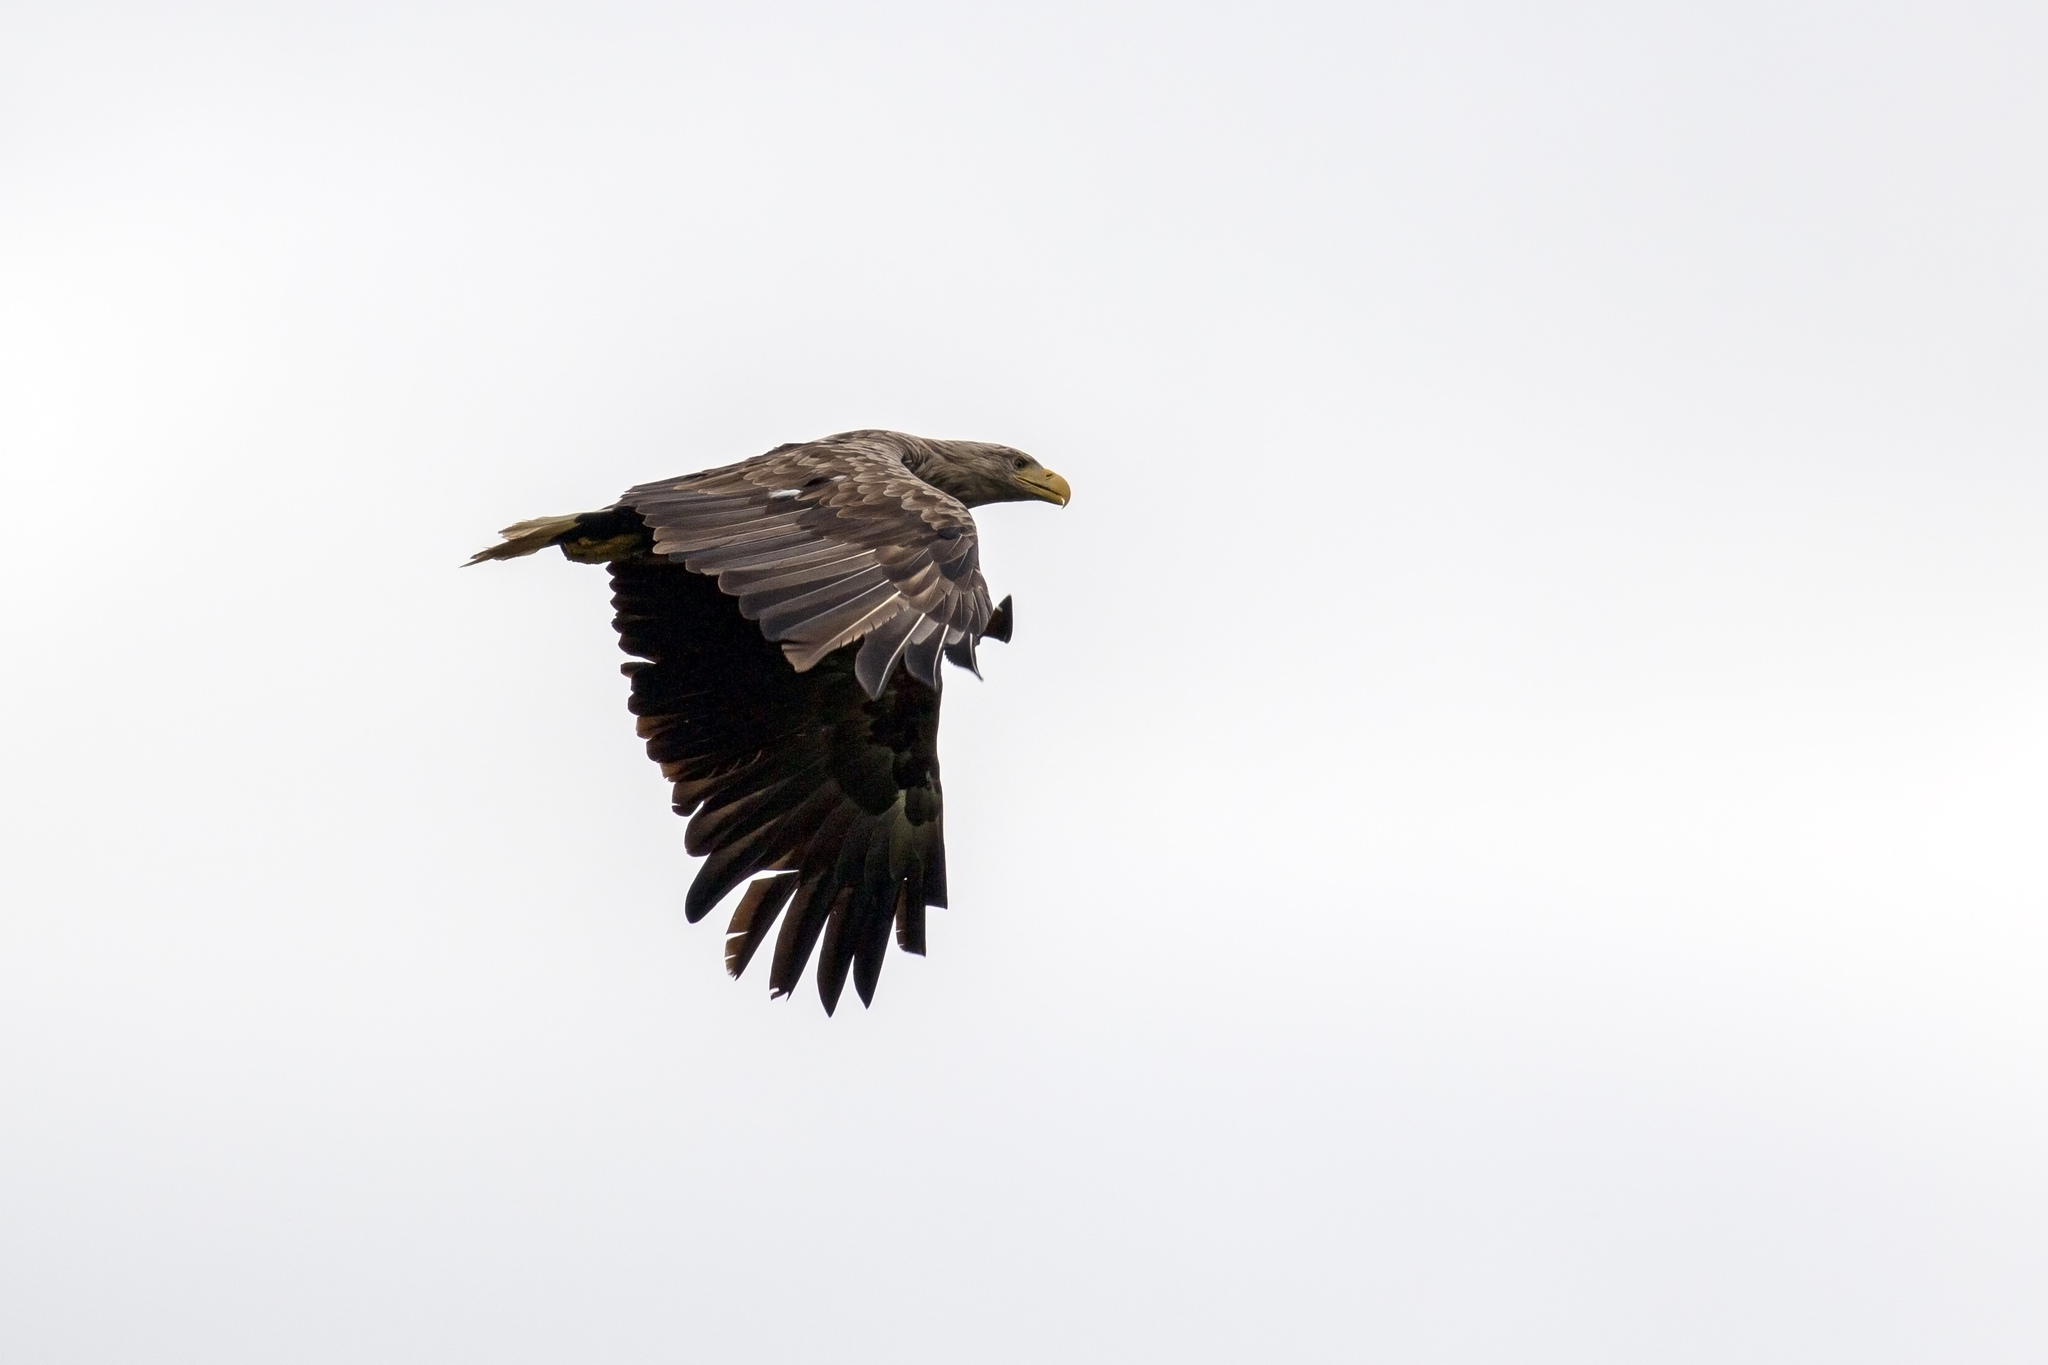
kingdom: Animalia
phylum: Chordata
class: Aves
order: Accipitriformes
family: Accipitridae
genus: Haliaeetus
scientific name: Haliaeetus albicilla
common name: White-tailed eagle
